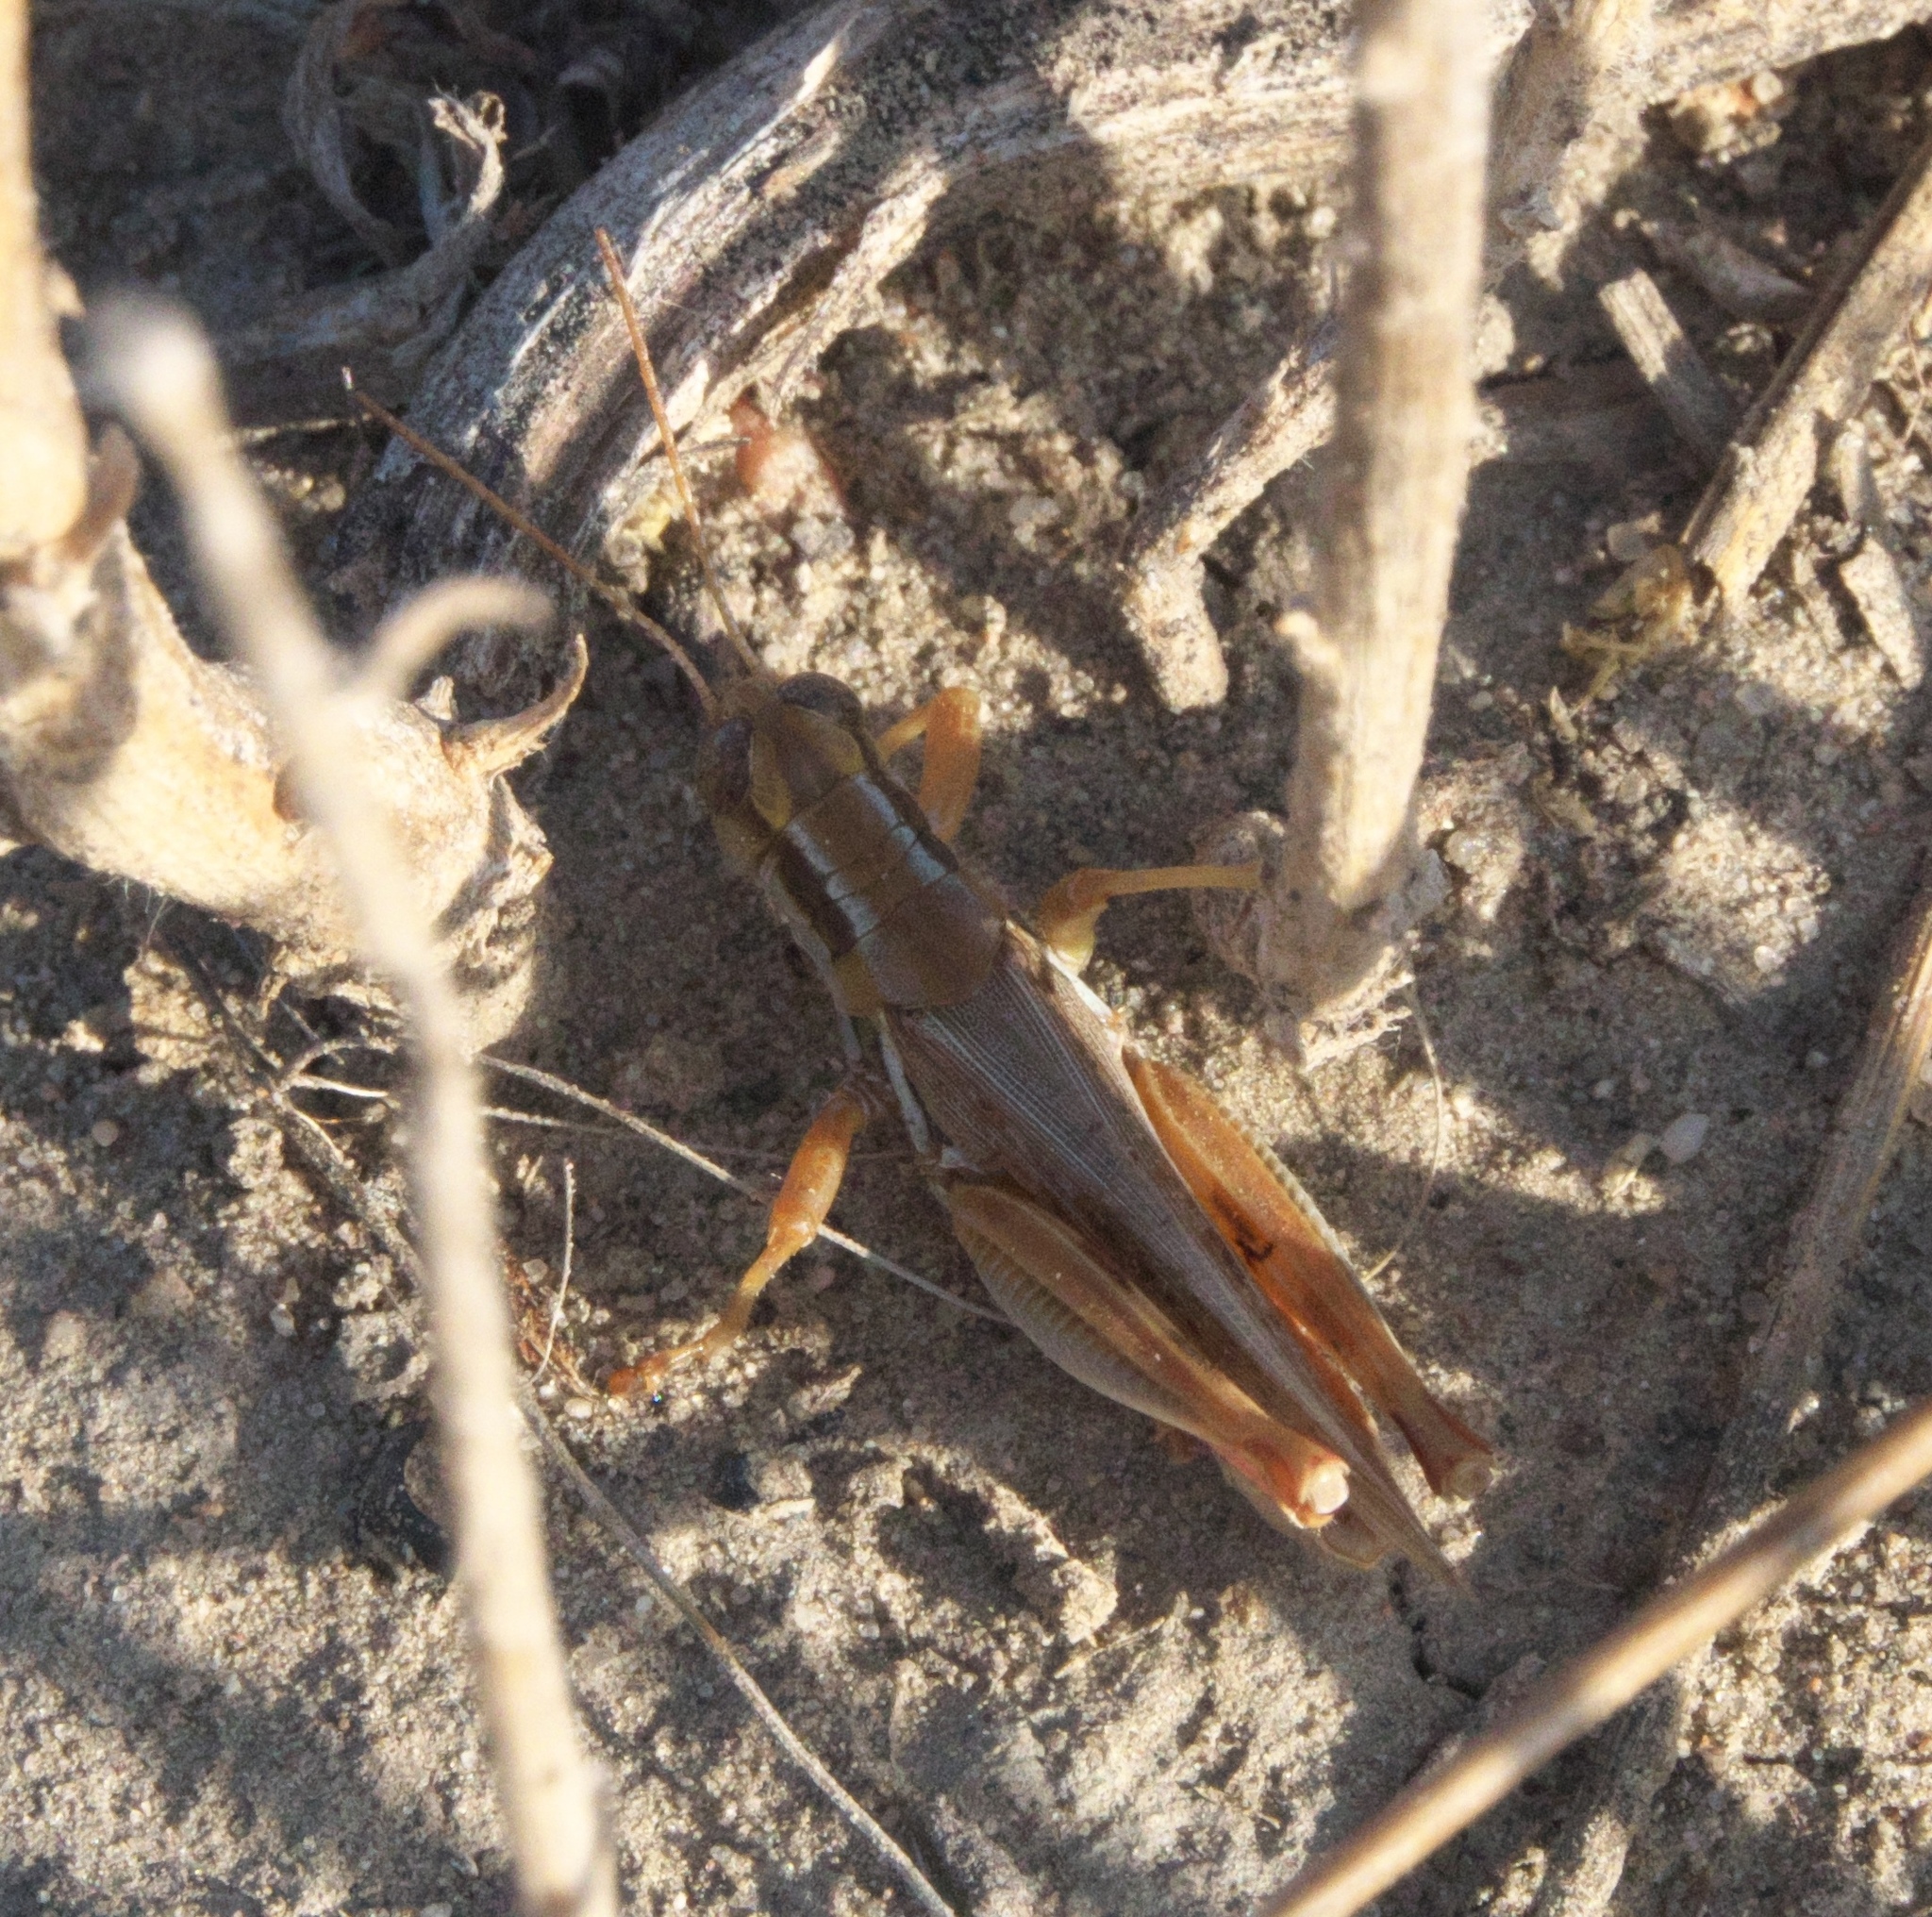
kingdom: Animalia
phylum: Arthropoda
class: Insecta
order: Orthoptera
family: Acrididae
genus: Melanoplus
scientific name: Melanoplus angustipennis
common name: Narrow-winged locust
